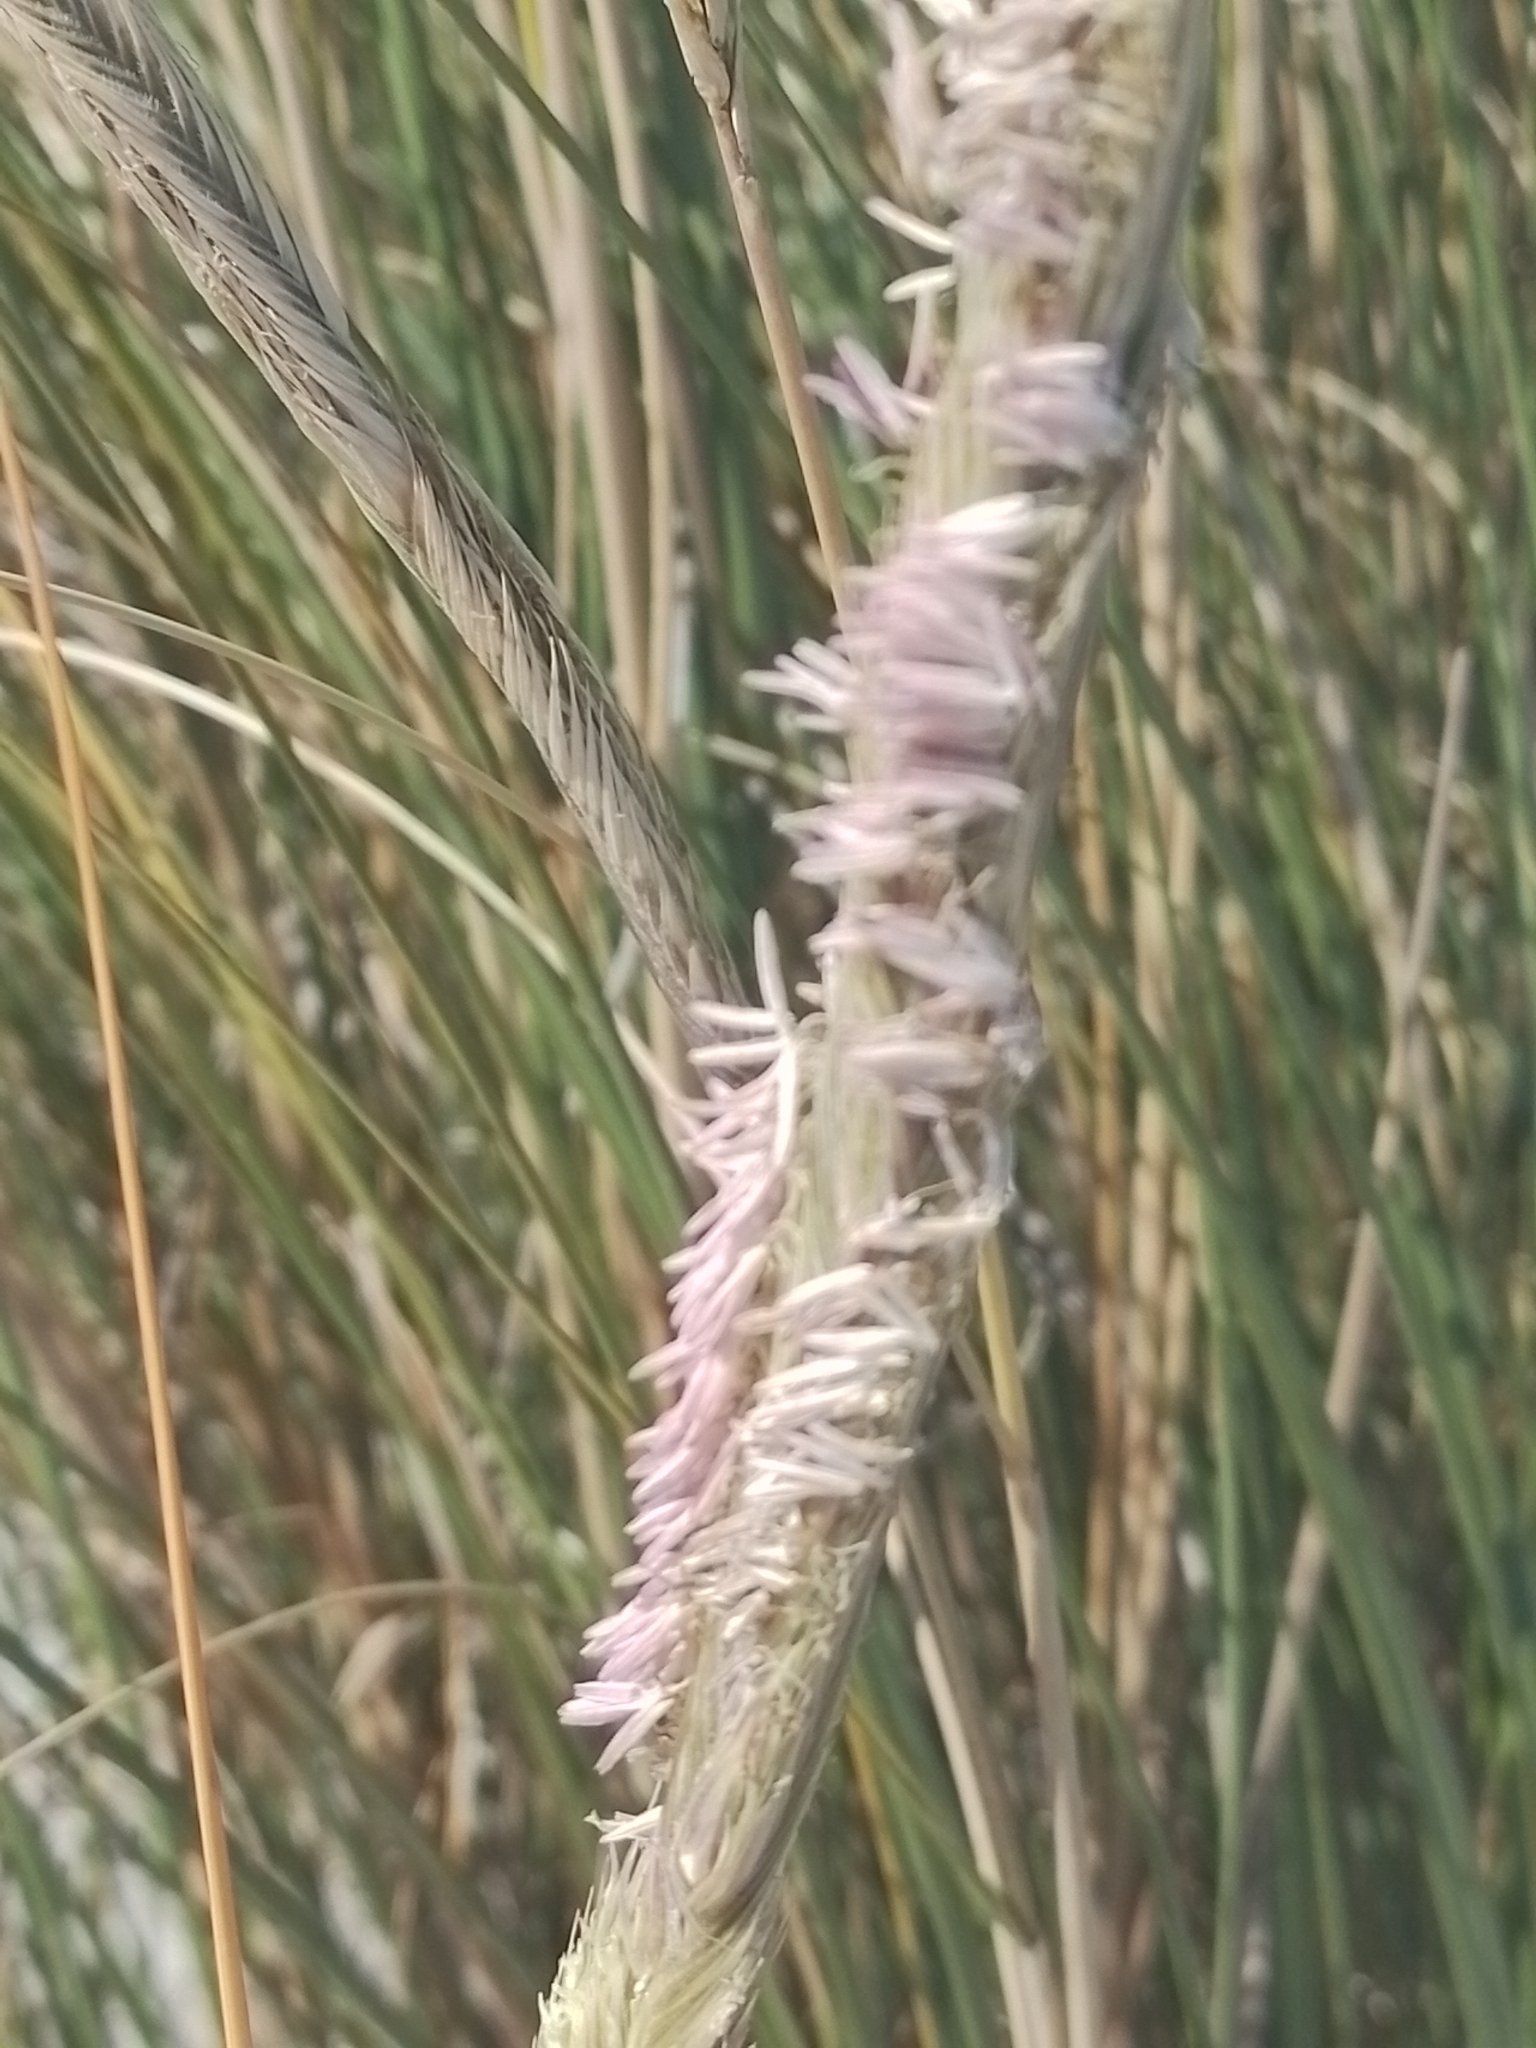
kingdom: Plantae
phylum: Tracheophyta
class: Liliopsida
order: Poales
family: Poaceae
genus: Sporobolus
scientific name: Sporobolus coarctatus
